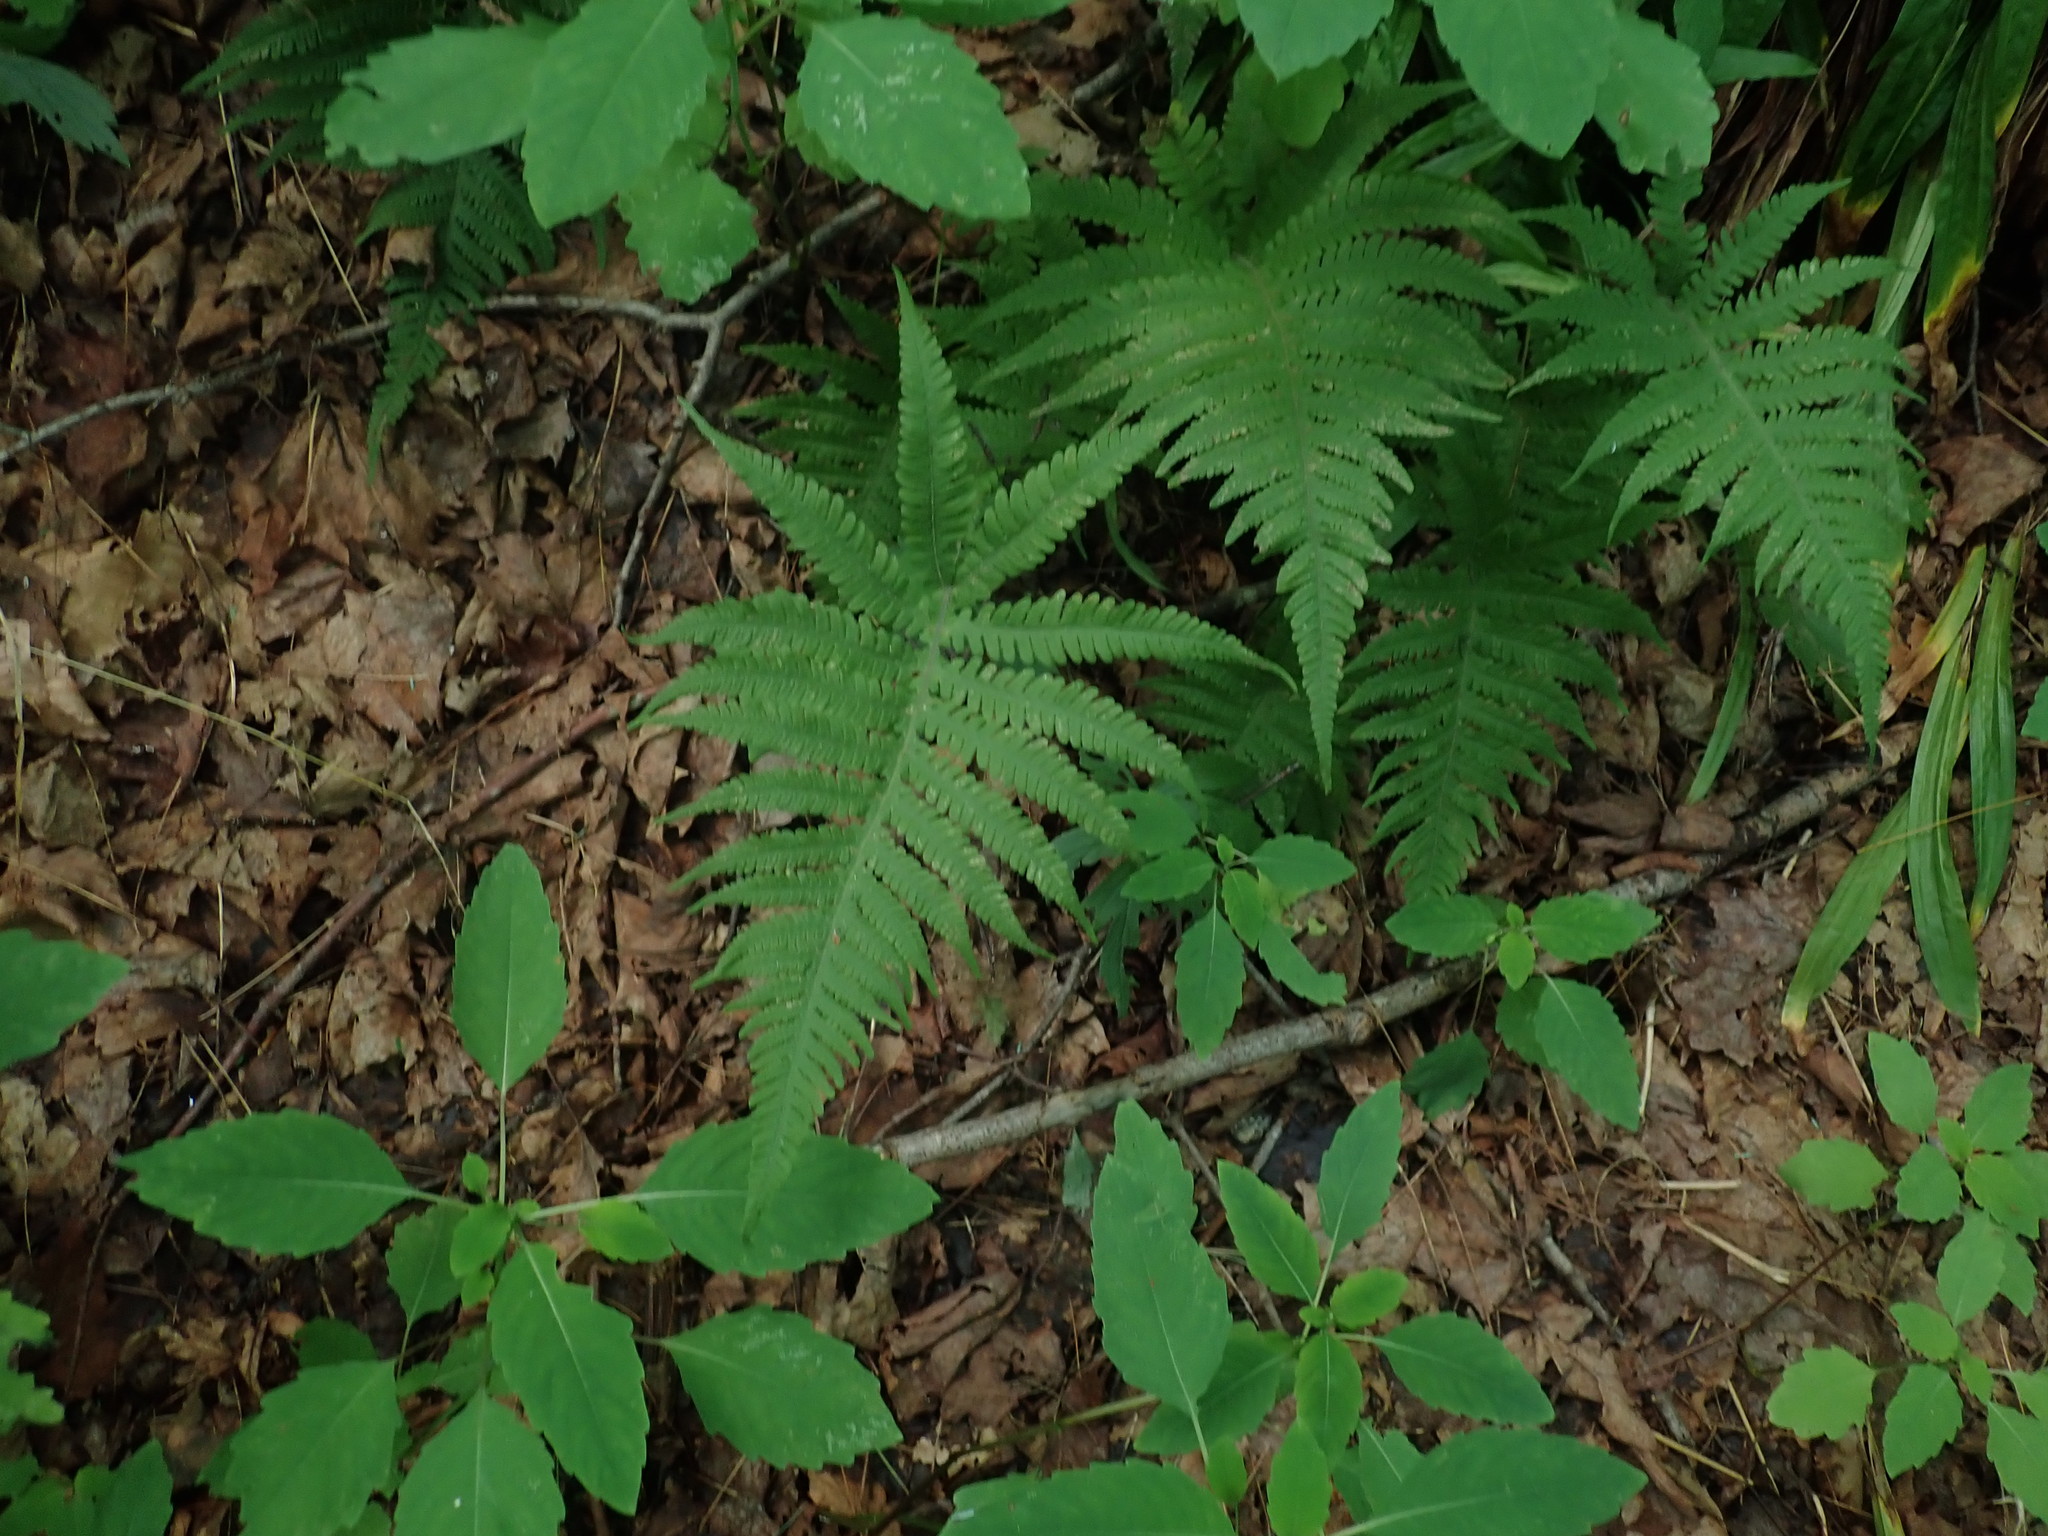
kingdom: Plantae
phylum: Tracheophyta
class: Polypodiopsida
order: Polypodiales
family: Thelypteridaceae
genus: Phegopteris
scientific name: Phegopteris connectilis
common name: Beech fern
